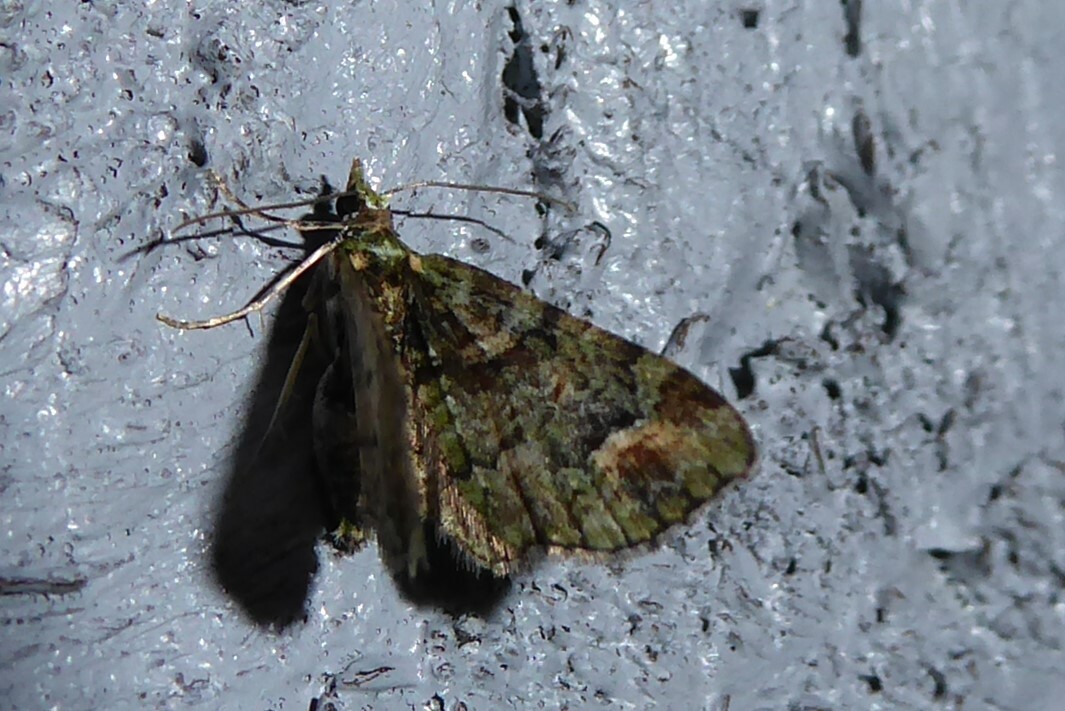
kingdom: Animalia
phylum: Arthropoda
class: Insecta
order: Lepidoptera
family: Geometridae
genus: Idaea
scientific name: Idaea mutanda
